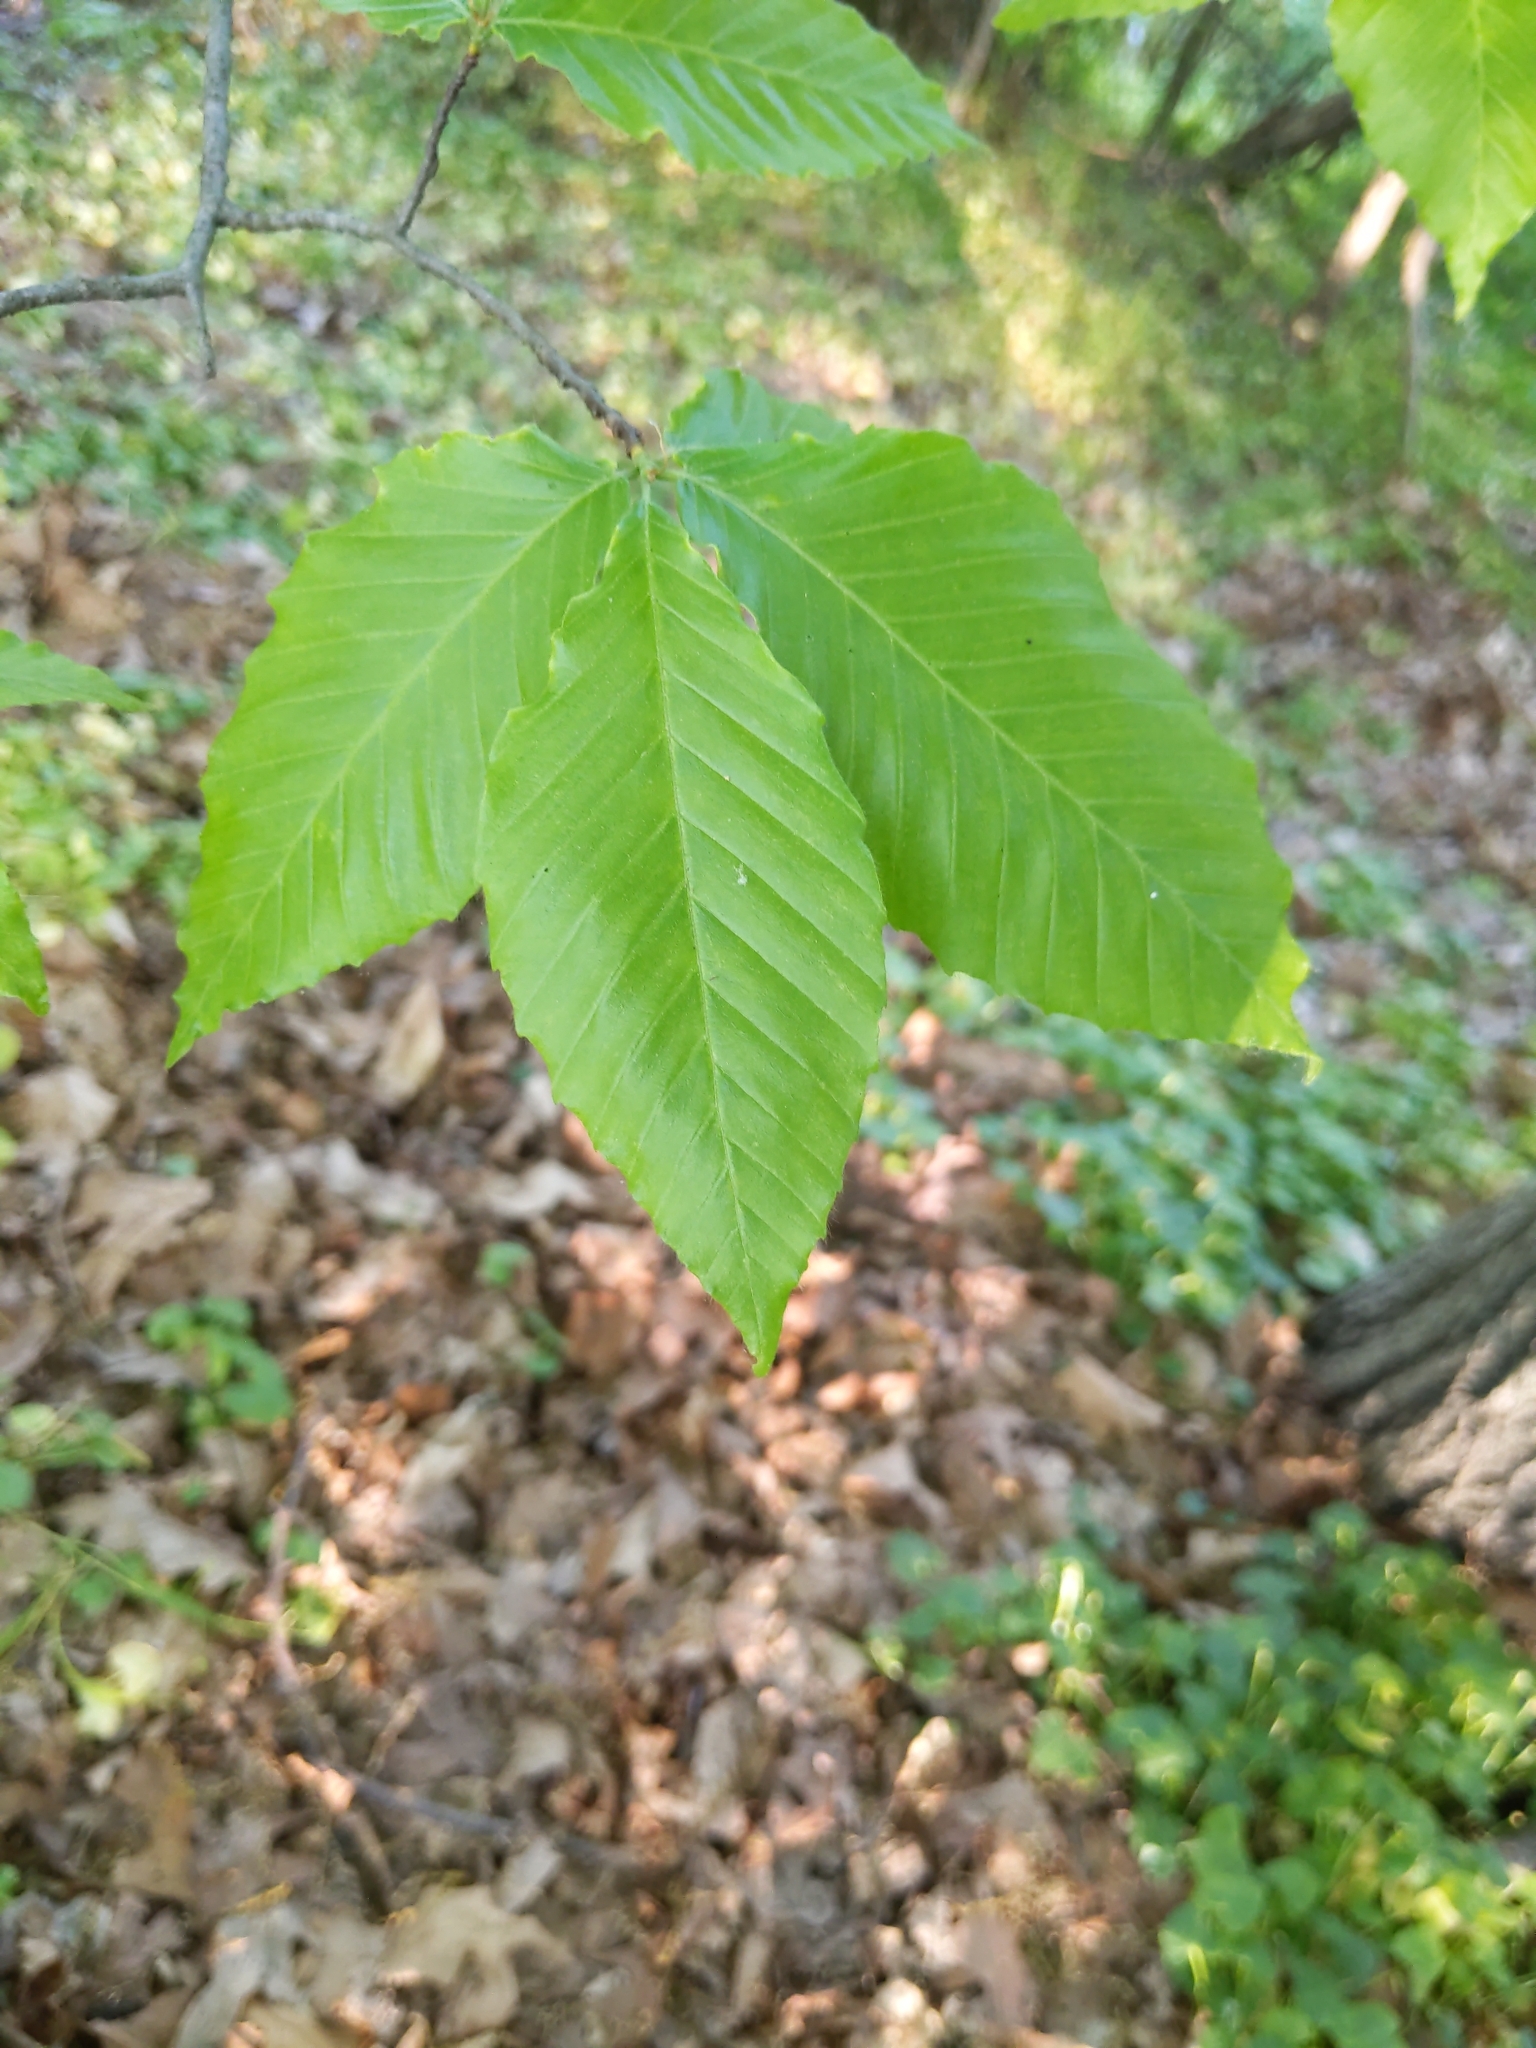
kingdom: Plantae
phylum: Tracheophyta
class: Magnoliopsida
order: Fagales
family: Fagaceae
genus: Fagus
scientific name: Fagus grandifolia
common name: American beech
